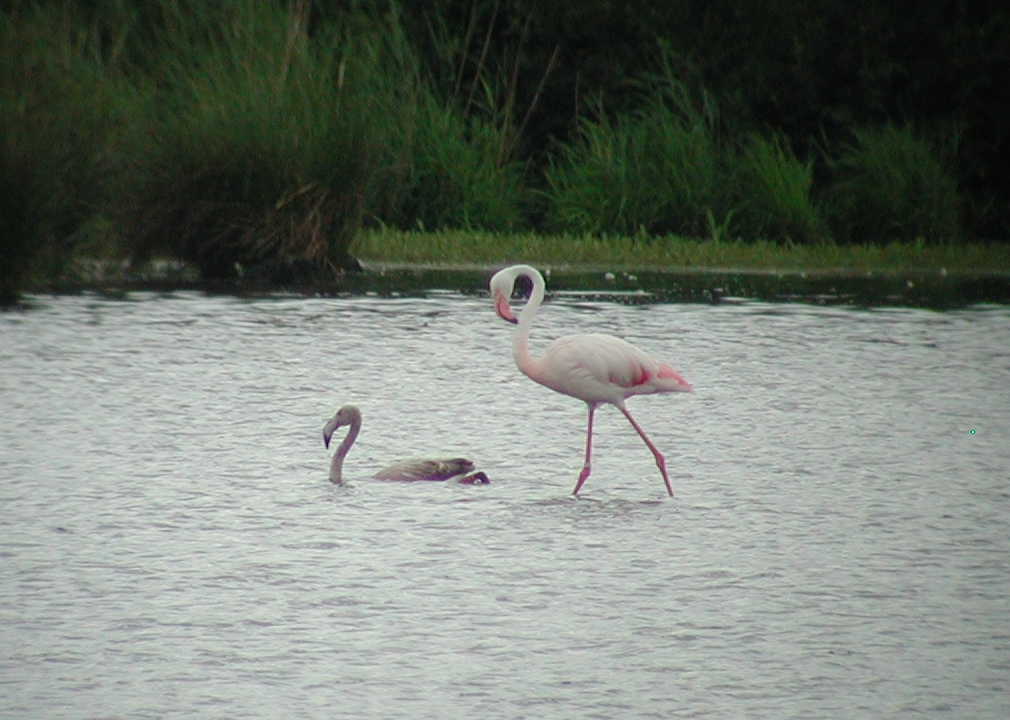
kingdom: Animalia
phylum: Chordata
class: Aves
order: Phoenicopteriformes
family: Phoenicopteridae
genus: Phoenicopterus
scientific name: Phoenicopterus roseus
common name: Greater flamingo
